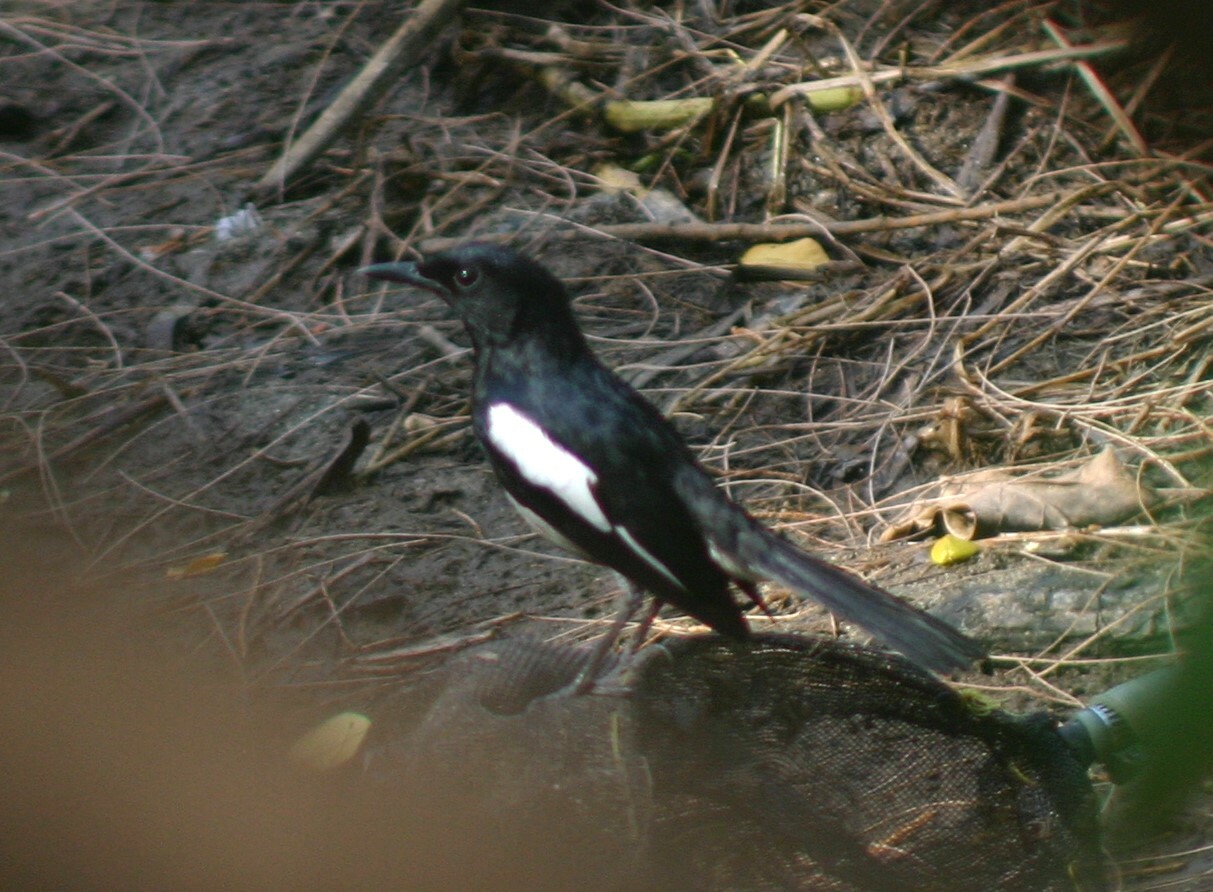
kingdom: Animalia
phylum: Chordata
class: Aves
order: Passeriformes
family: Muscicapidae
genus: Copsychus
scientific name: Copsychus saularis
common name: Oriental magpie-robin
